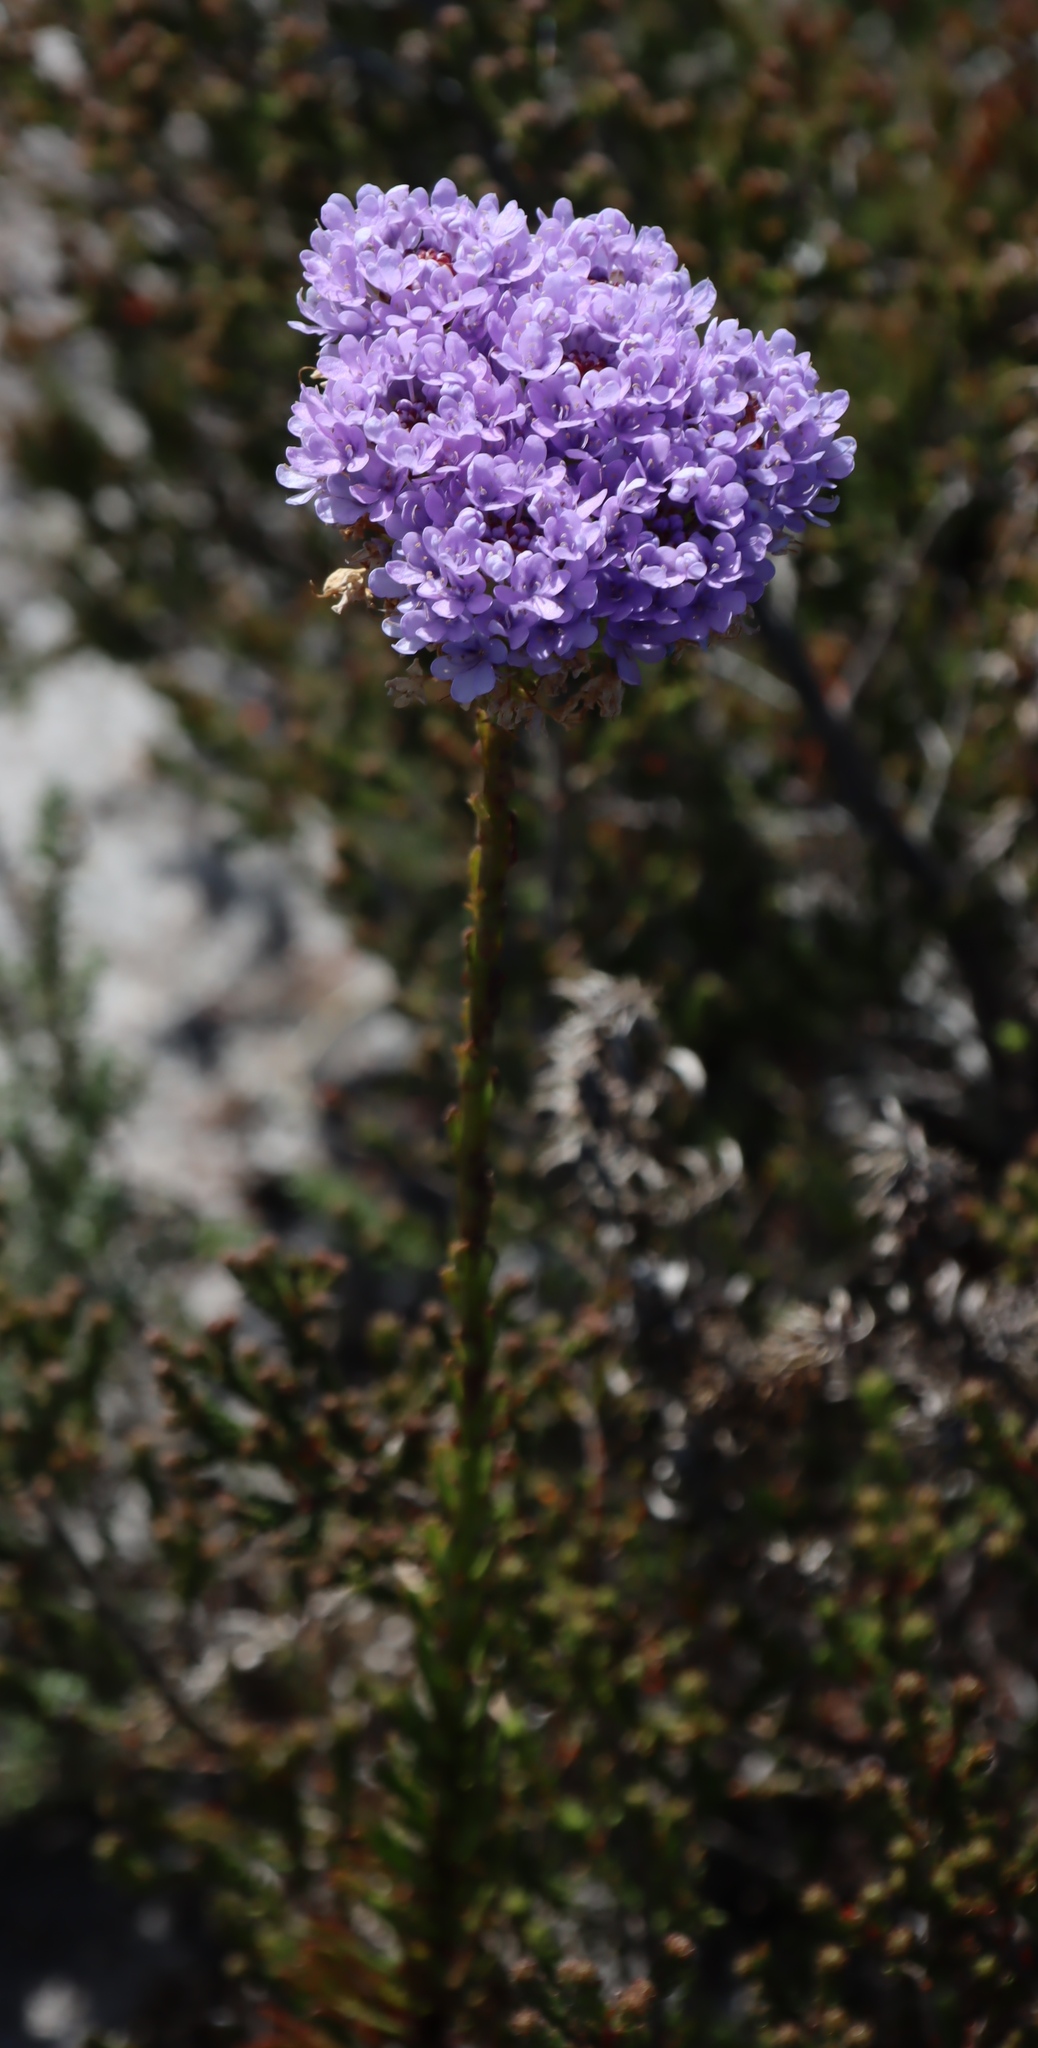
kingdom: Plantae
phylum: Tracheophyta
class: Magnoliopsida
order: Lamiales
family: Scrophulariaceae
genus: Pseudoselago
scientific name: Pseudoselago spuria
